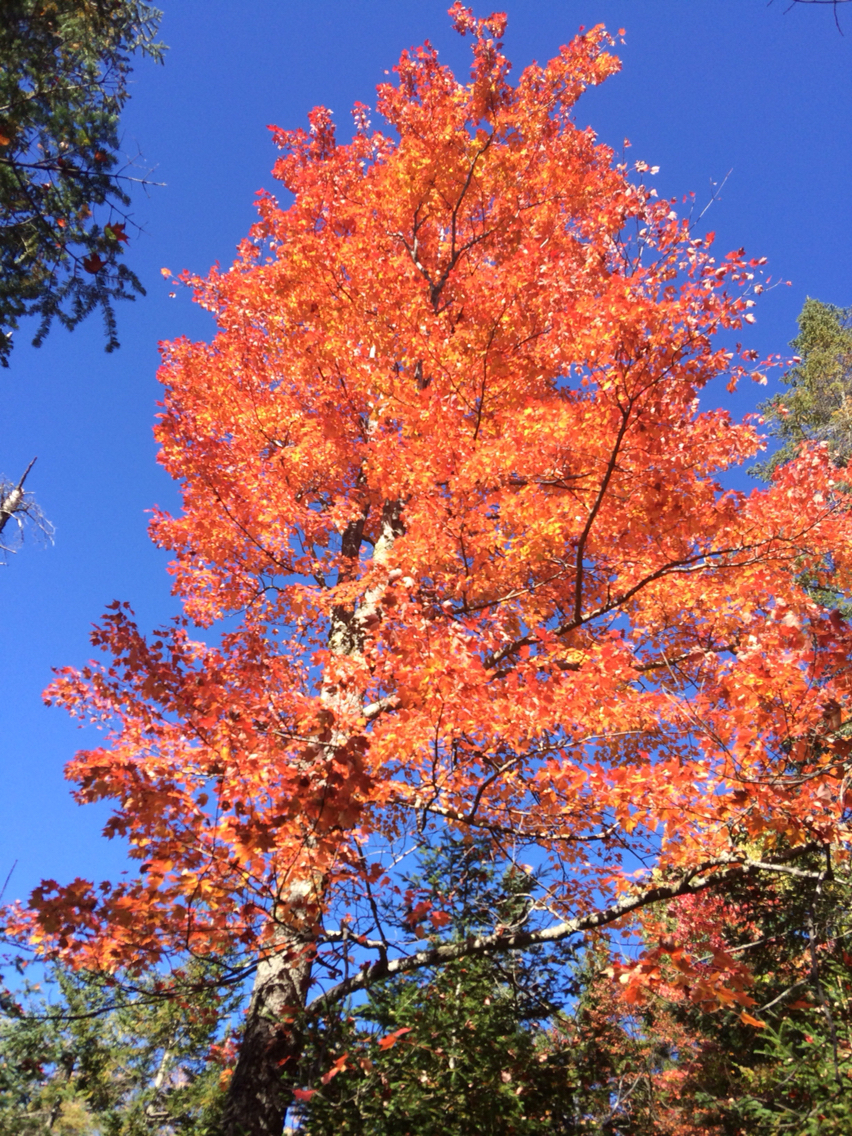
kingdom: Plantae
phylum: Tracheophyta
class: Magnoliopsida
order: Sapindales
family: Sapindaceae
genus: Acer
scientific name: Acer rubrum
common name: Red maple
